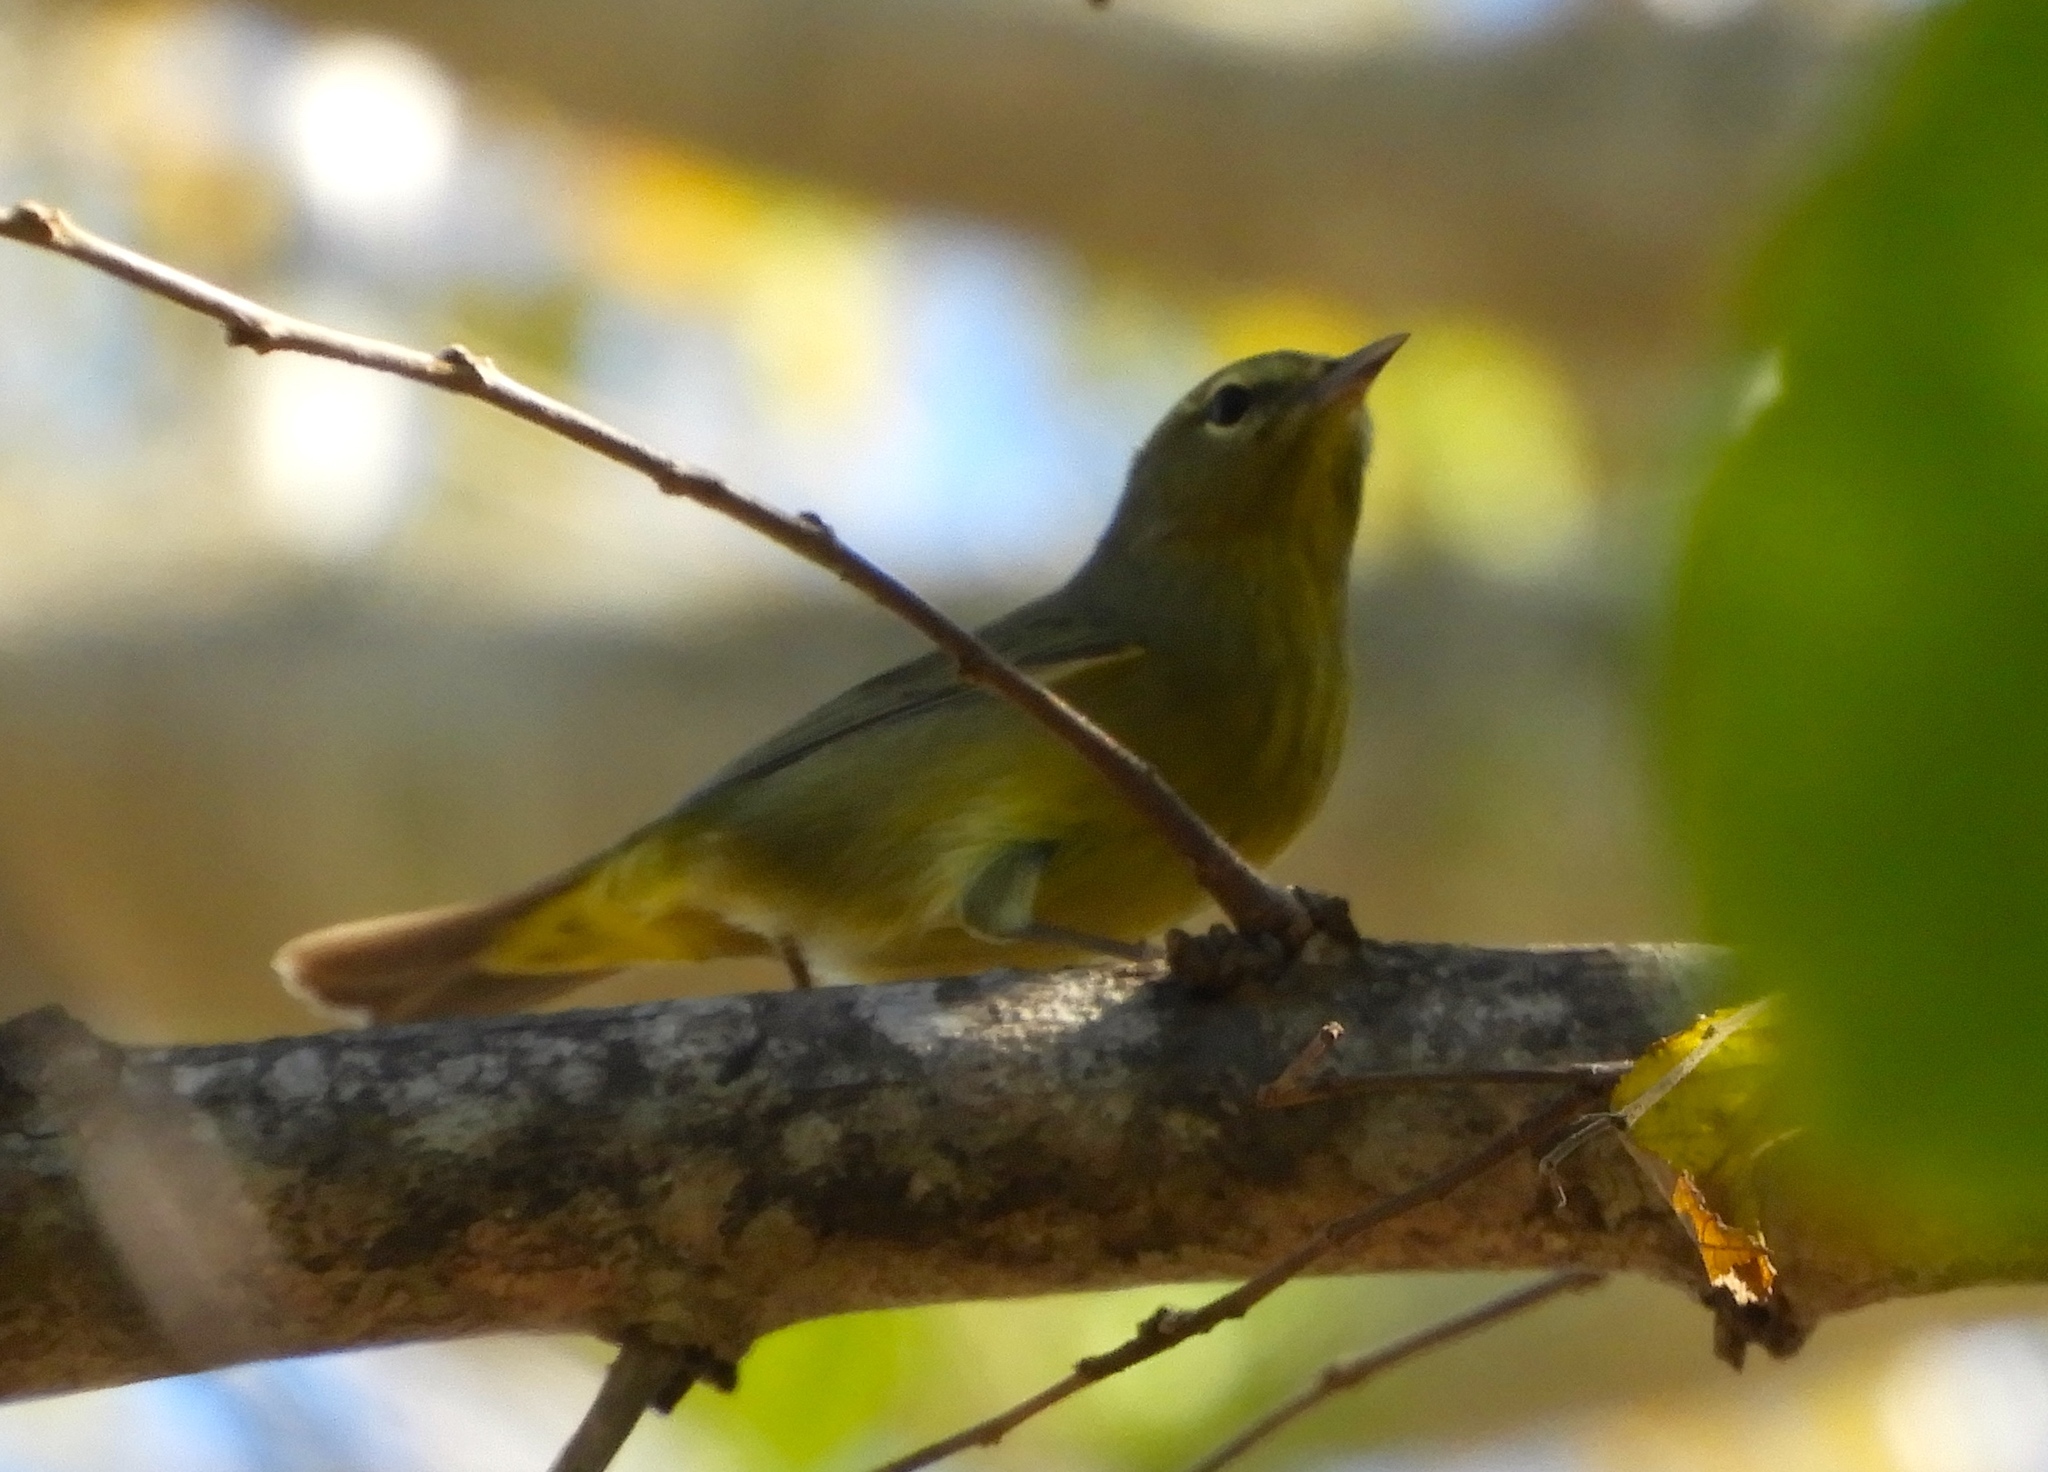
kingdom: Animalia
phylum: Chordata
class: Aves
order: Passeriformes
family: Parulidae
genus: Leiothlypis
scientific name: Leiothlypis celata
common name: Orange-crowned warbler
